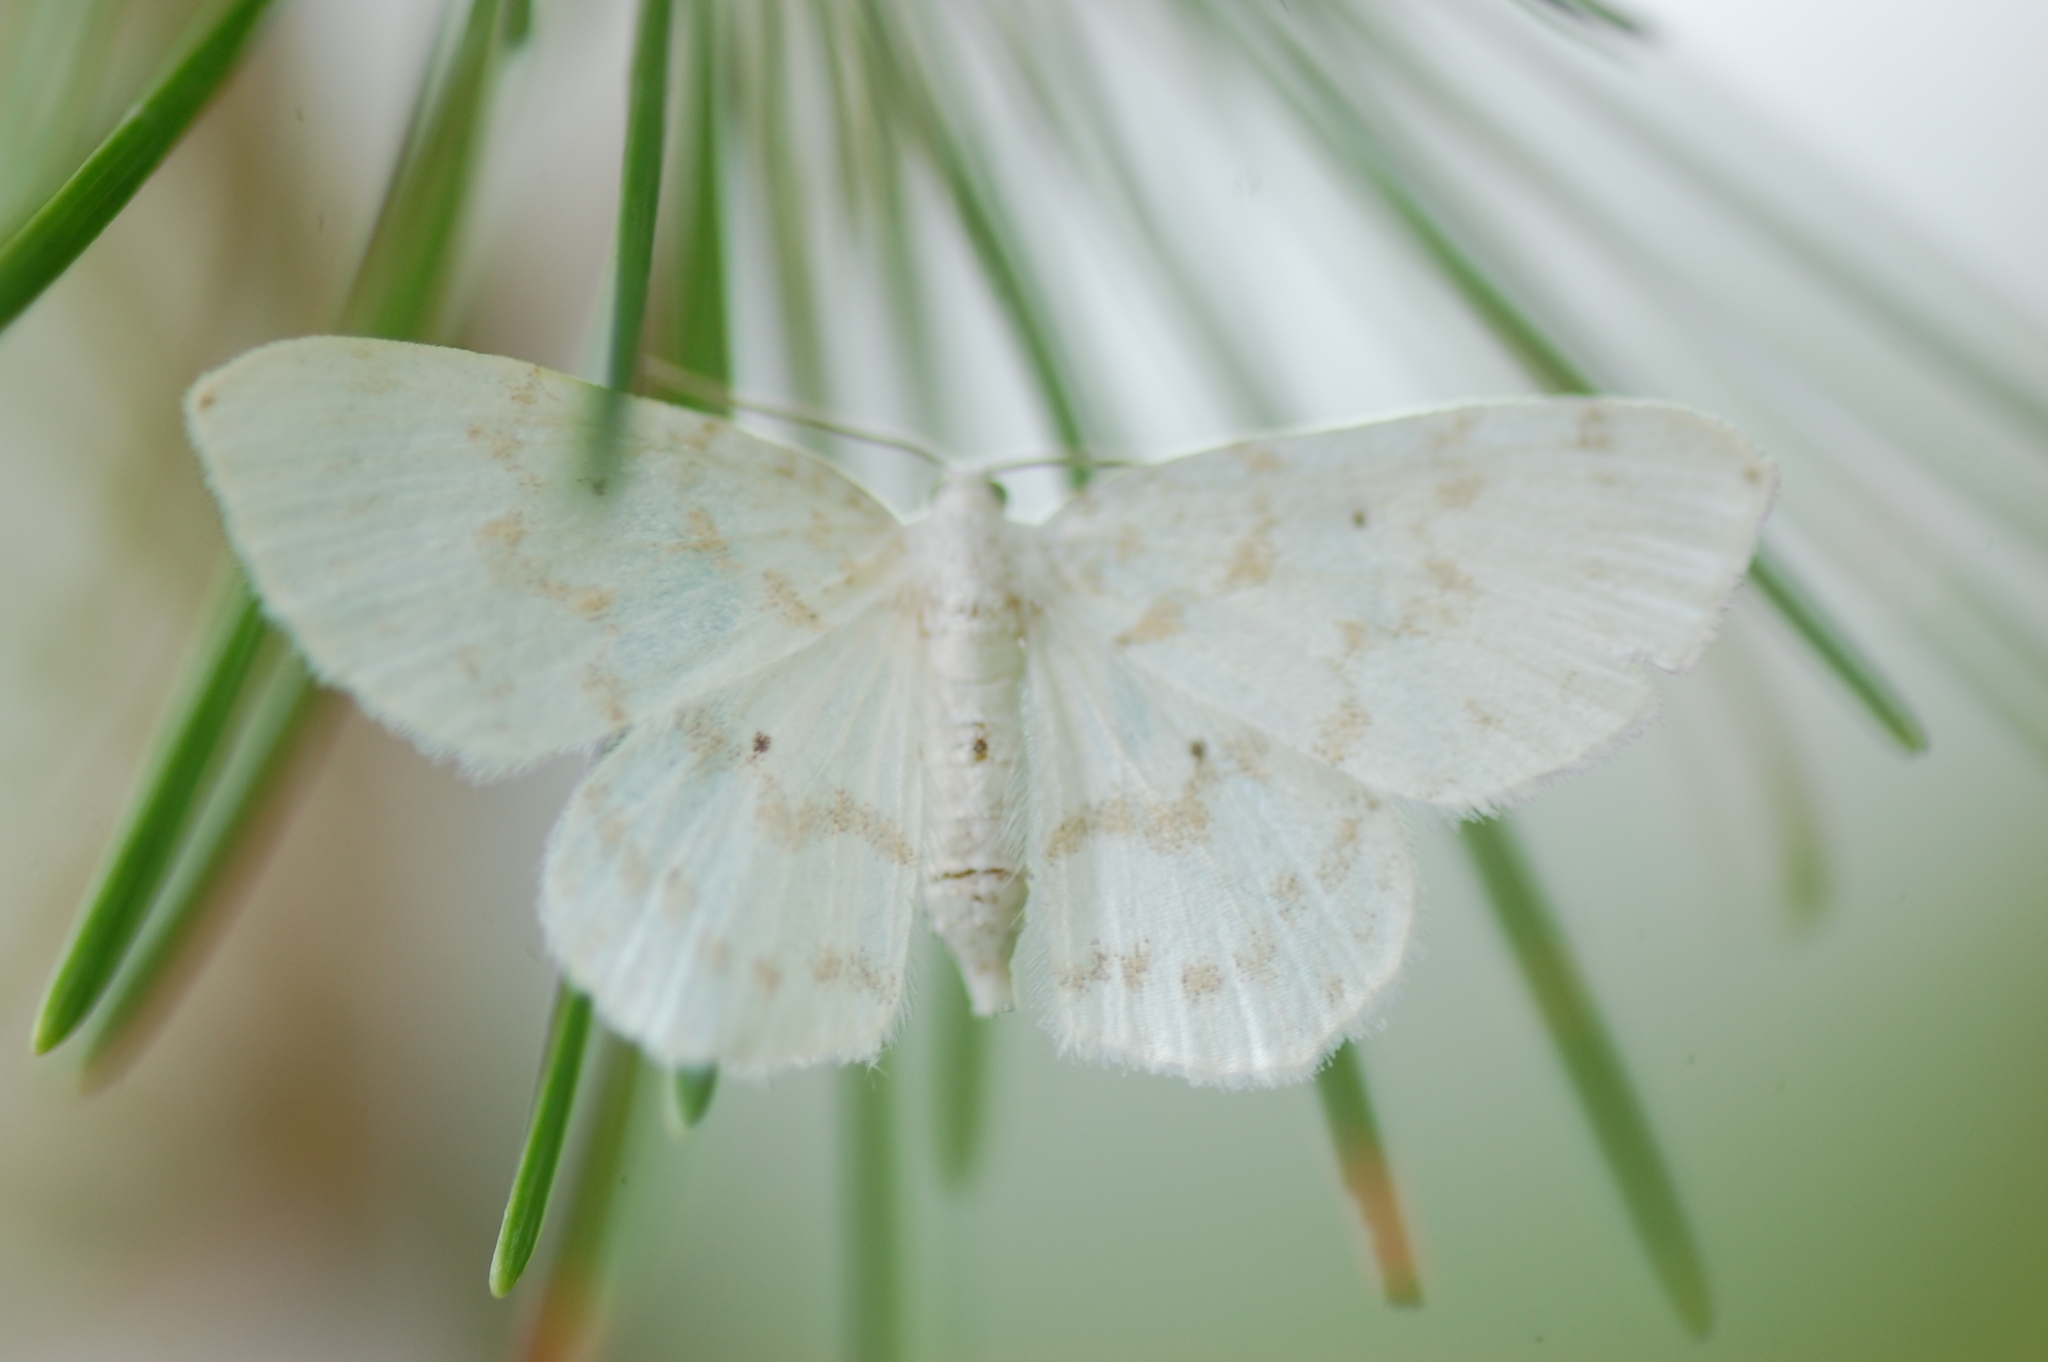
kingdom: Animalia
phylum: Arthropoda
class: Insecta
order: Lepidoptera
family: Geometridae
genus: Hydrelia
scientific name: Hydrelia albifera
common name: Fragile white carpet
